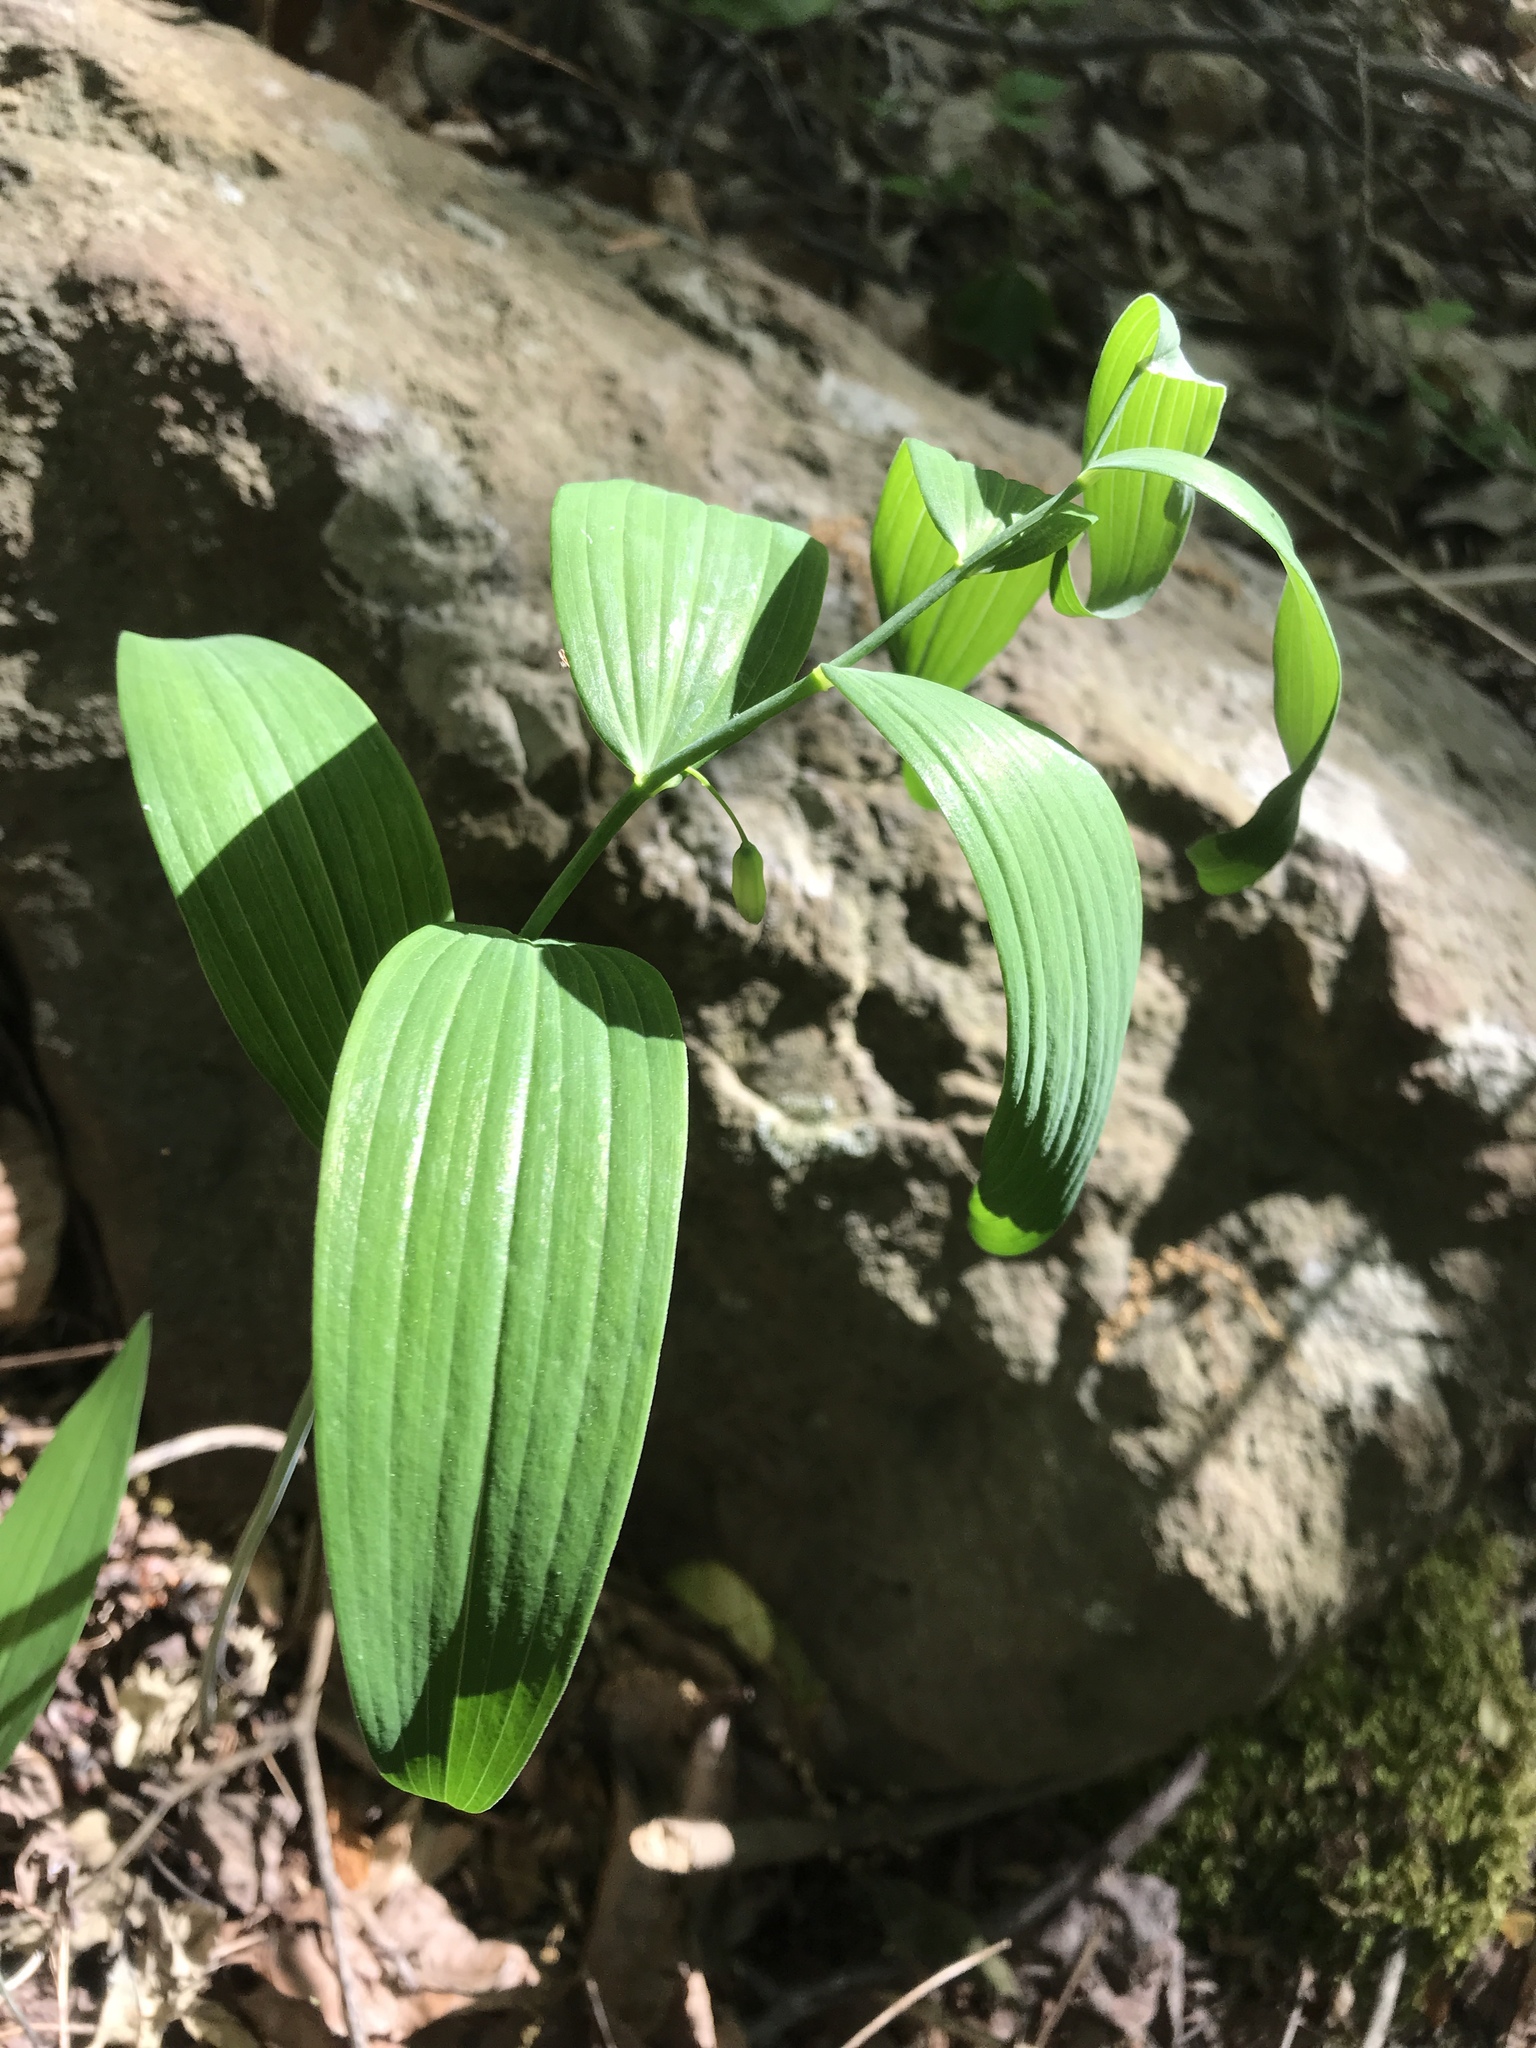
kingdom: Plantae
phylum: Tracheophyta
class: Liliopsida
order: Asparagales
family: Asparagaceae
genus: Polygonatum
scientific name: Polygonatum biflorum
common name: American solomon's-seal
